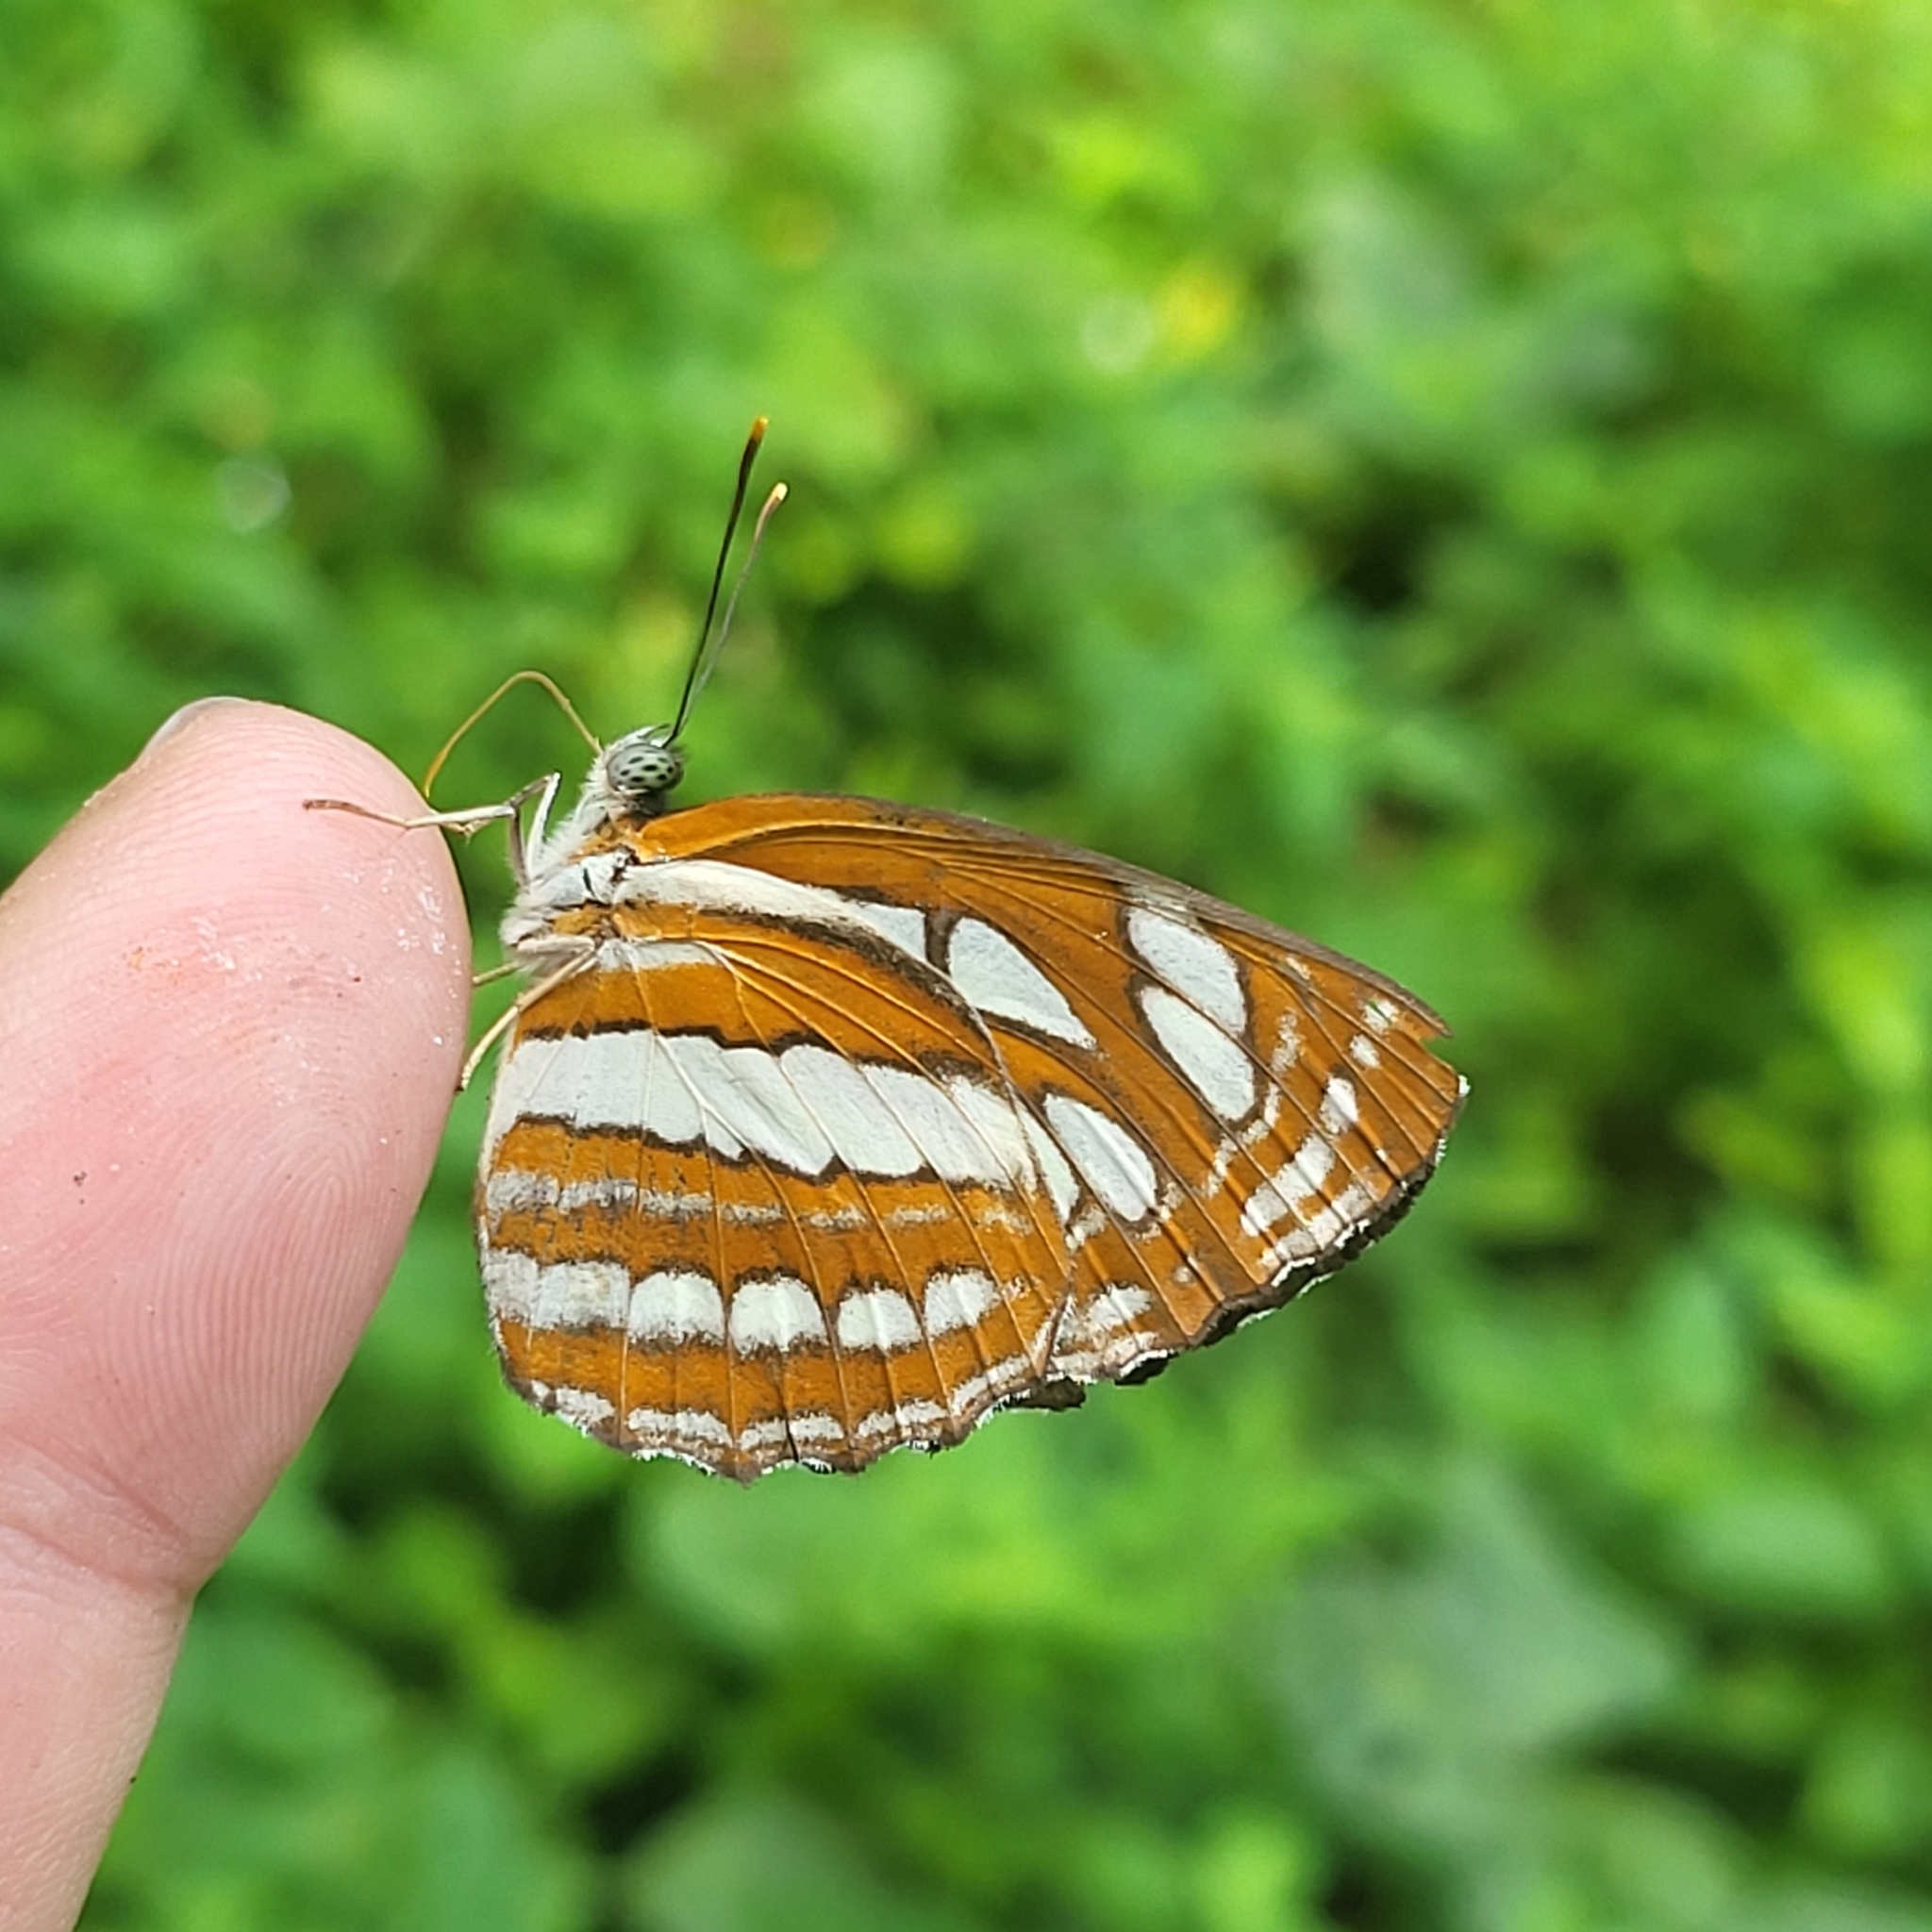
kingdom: Animalia
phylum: Arthropoda
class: Insecta
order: Lepidoptera
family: Nymphalidae
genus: Neptis
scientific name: Neptis hylas
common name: Common sailer
